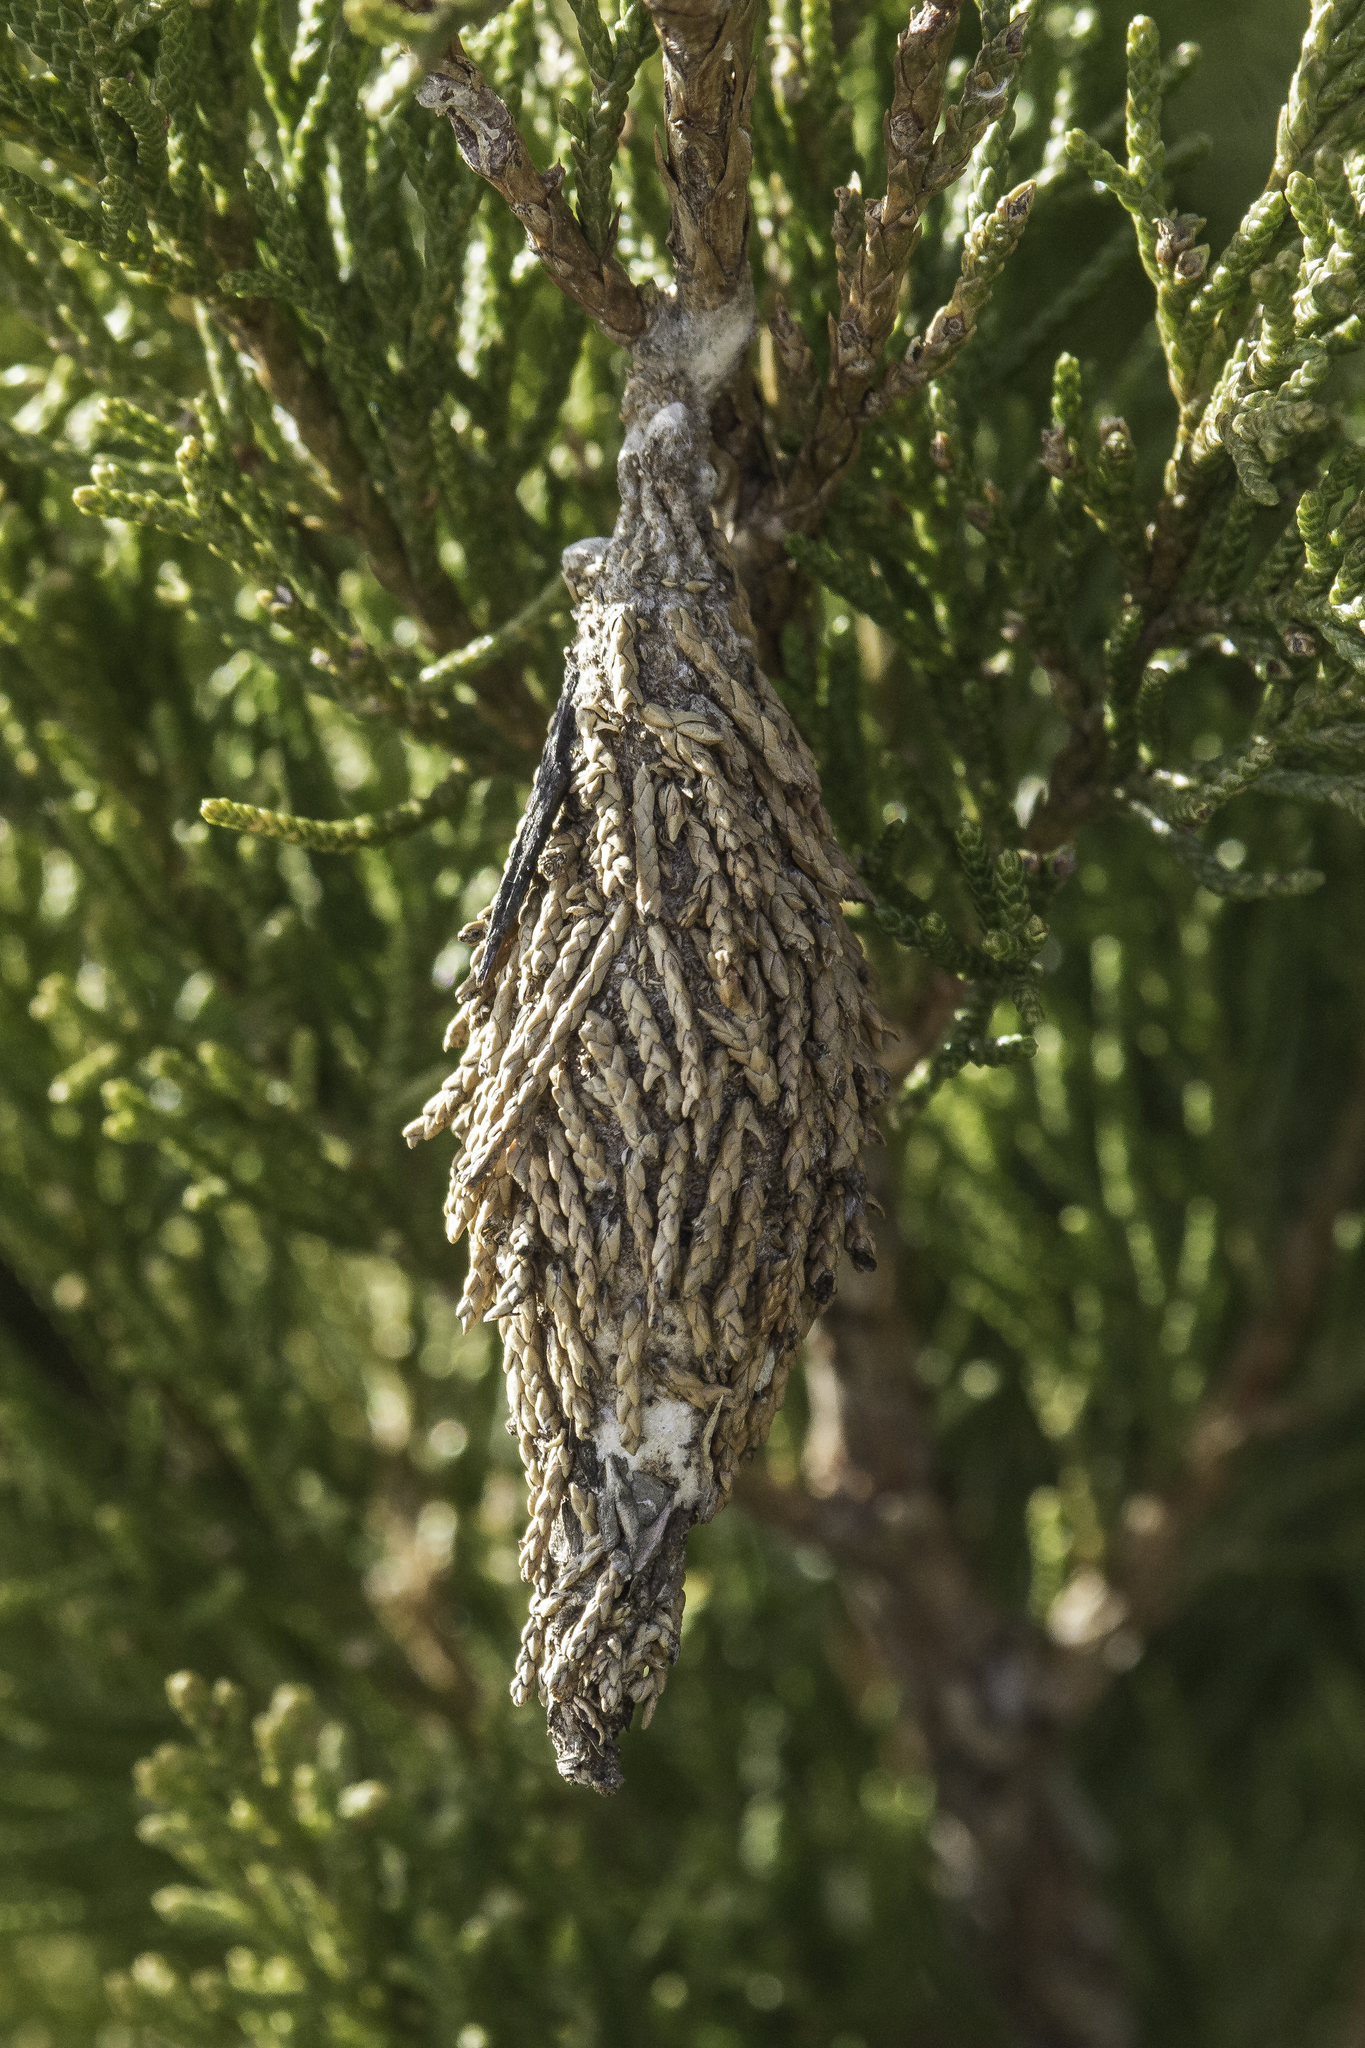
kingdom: Animalia
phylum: Arthropoda
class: Insecta
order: Lepidoptera
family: Psychidae
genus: Thyridopteryx
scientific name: Thyridopteryx ephemeraeformis
